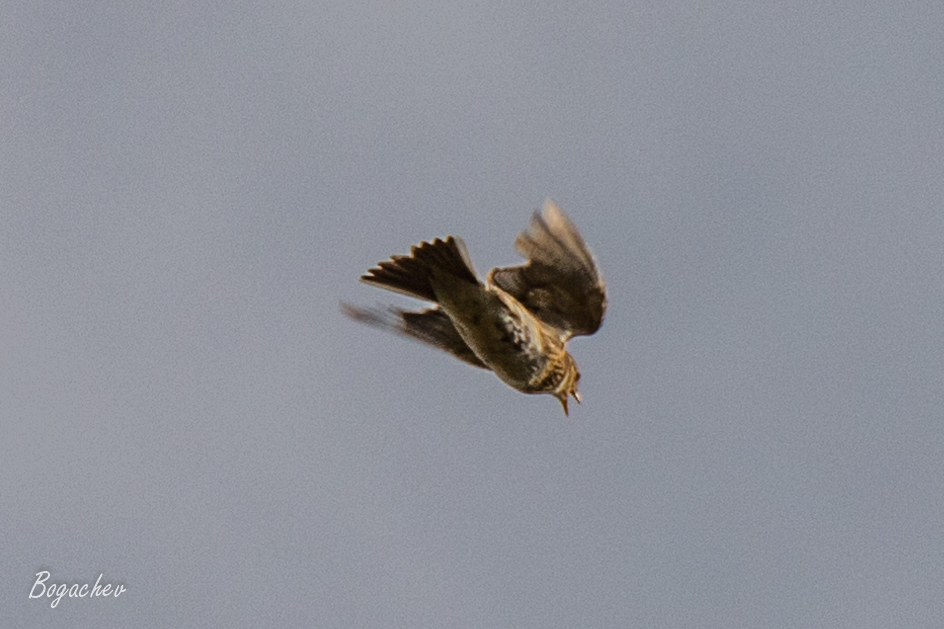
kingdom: Animalia
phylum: Chordata
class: Aves
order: Passeriformes
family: Alaudidae
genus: Alauda
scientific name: Alauda arvensis
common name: Eurasian skylark
